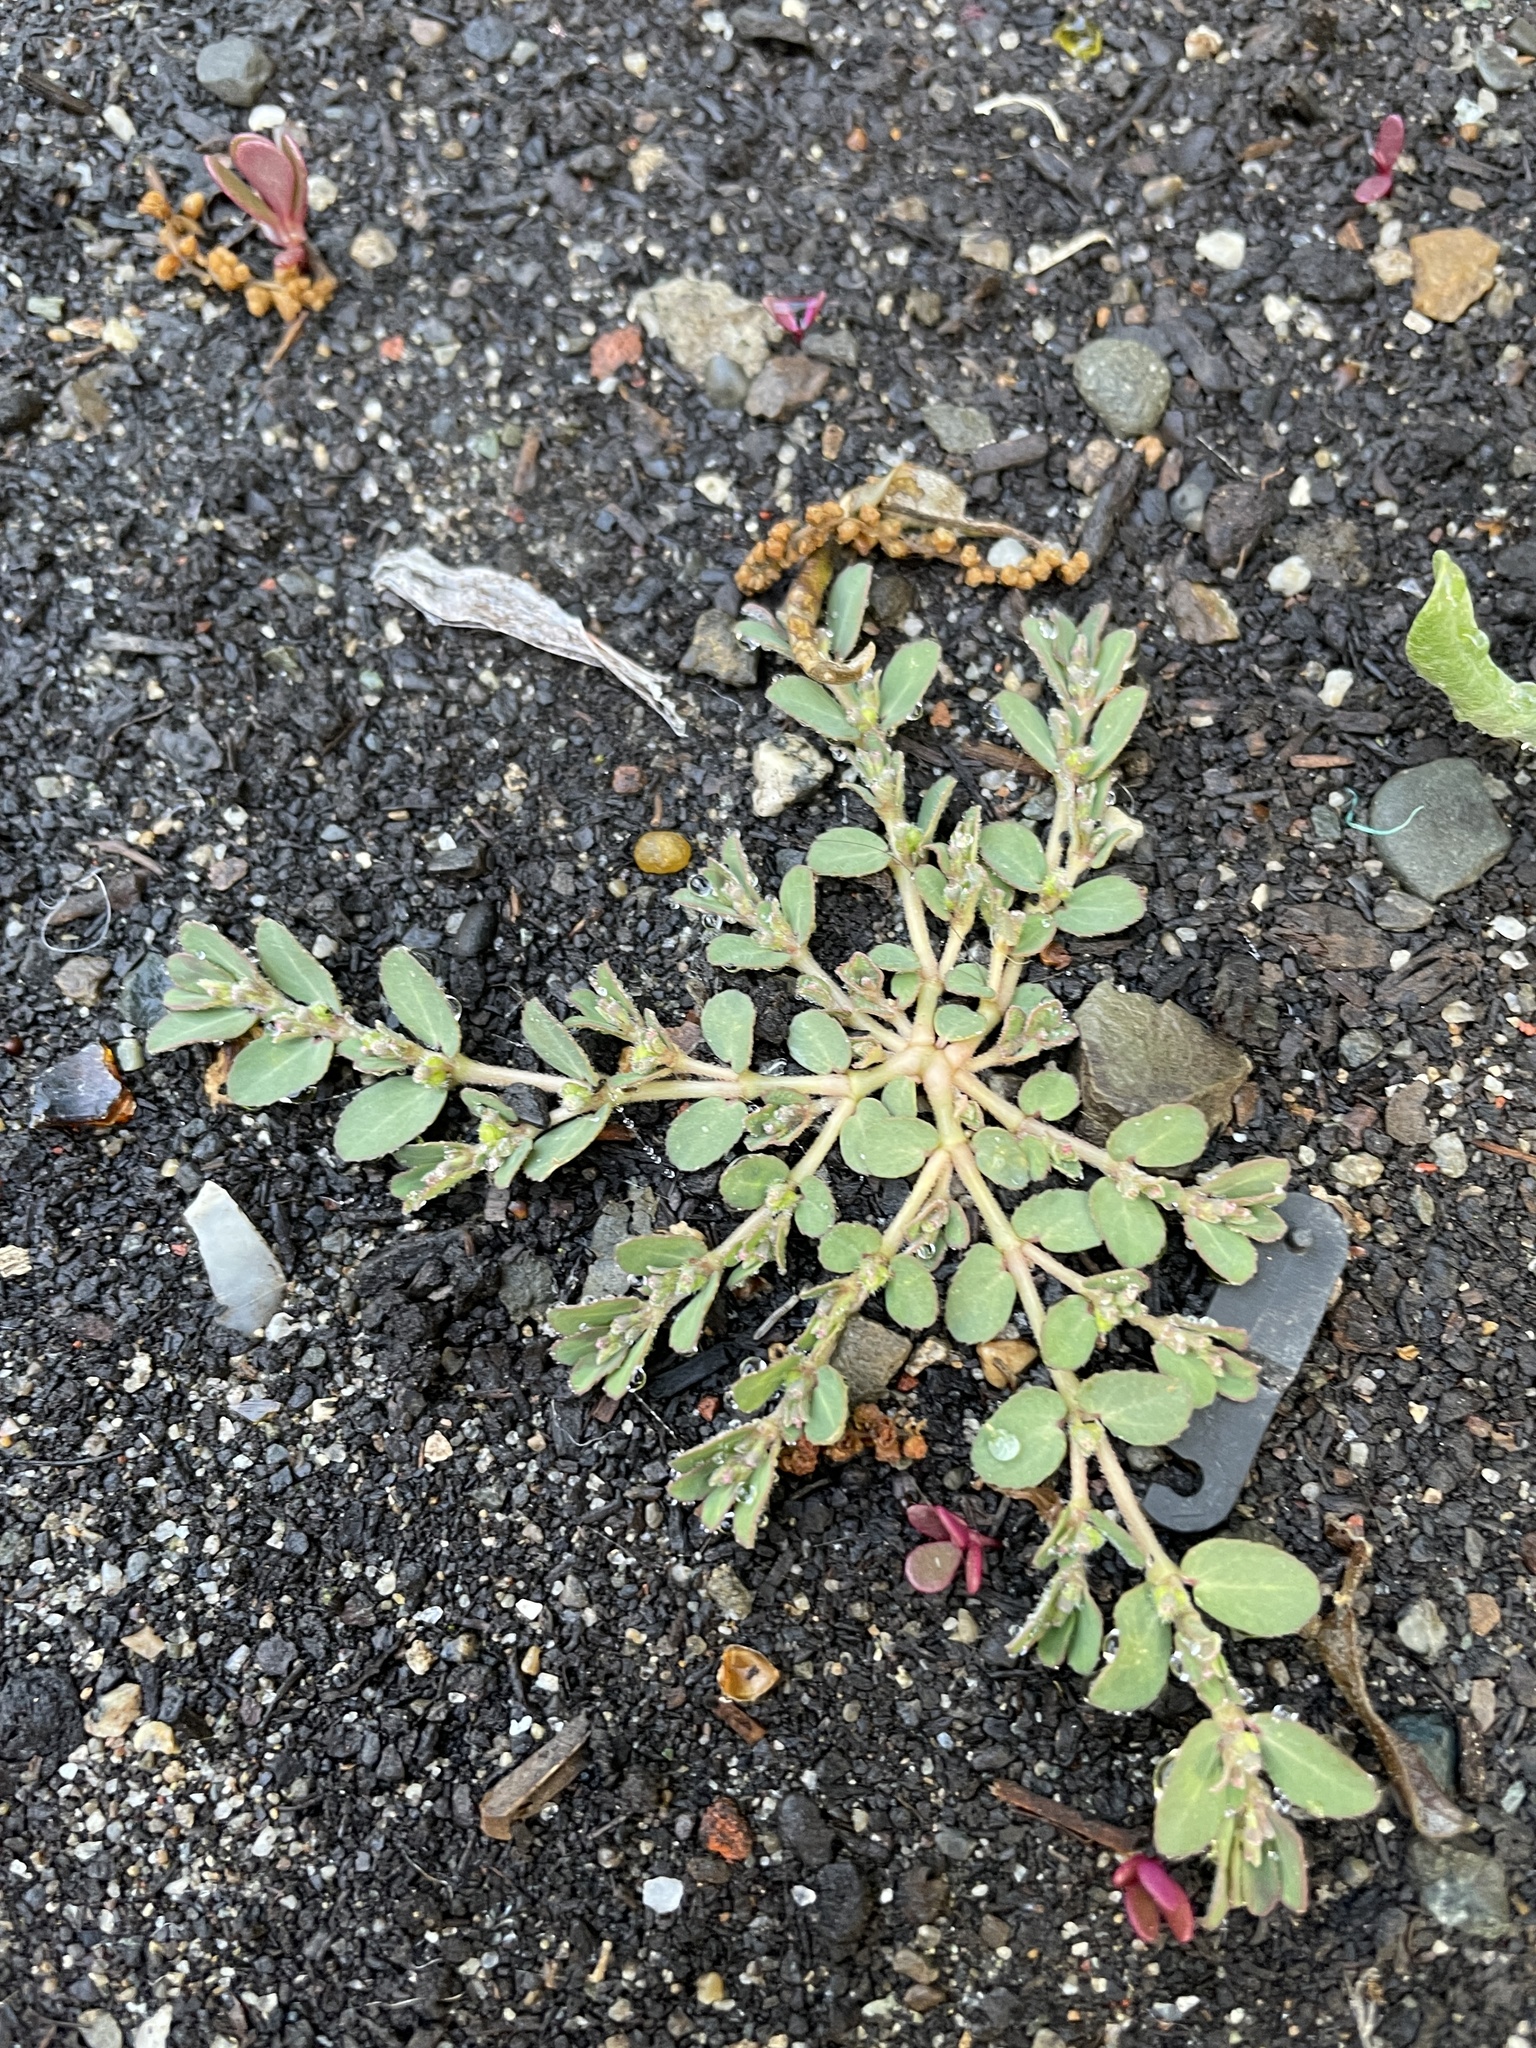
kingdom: Plantae
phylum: Tracheophyta
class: Magnoliopsida
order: Malpighiales
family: Euphorbiaceae
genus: Euphorbia
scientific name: Euphorbia prostrata
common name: Prostrate sandmat
